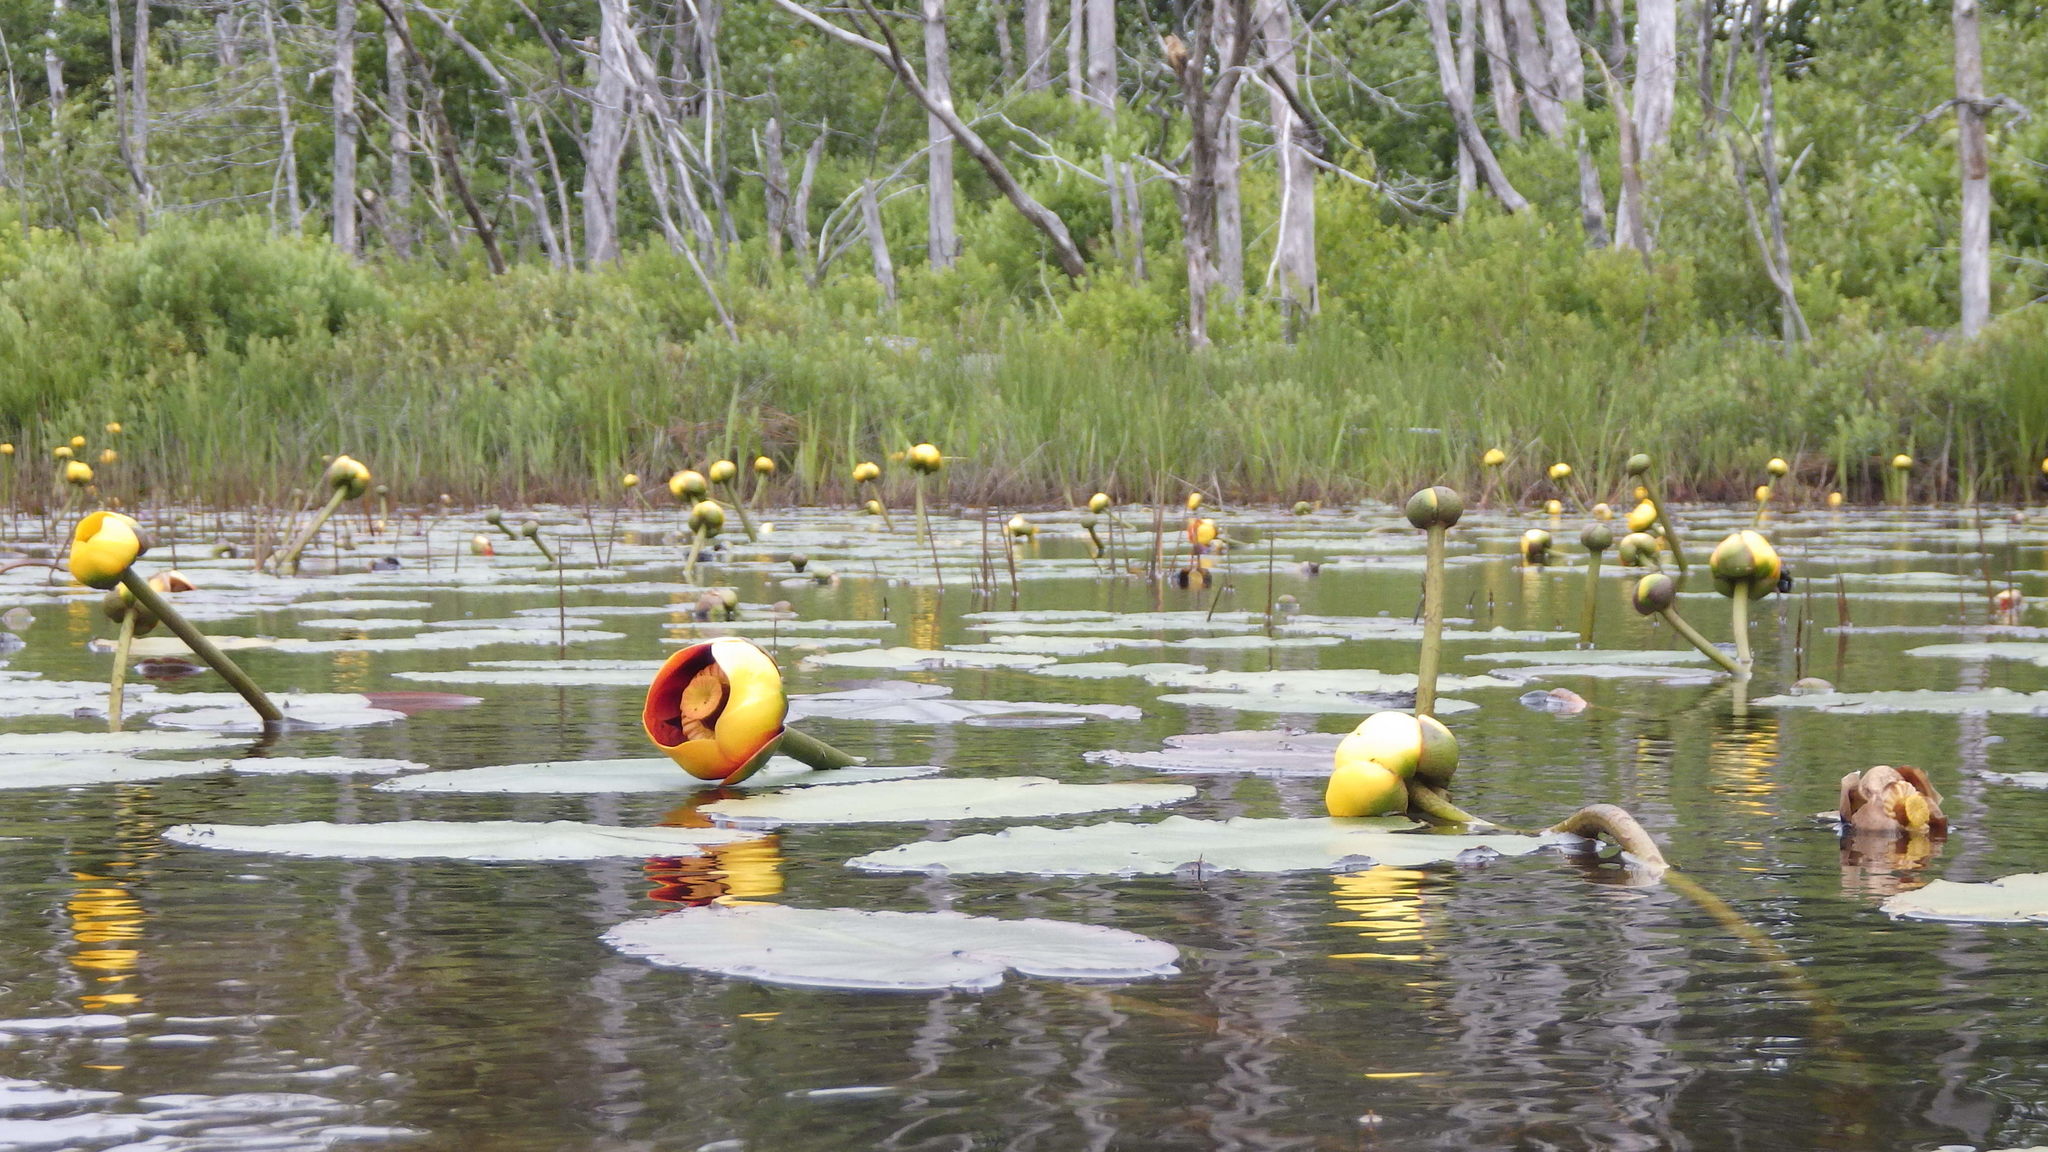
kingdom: Plantae
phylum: Tracheophyta
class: Magnoliopsida
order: Nymphaeales
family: Nymphaeaceae
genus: Nuphar
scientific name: Nuphar variegata
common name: Beaver-root
